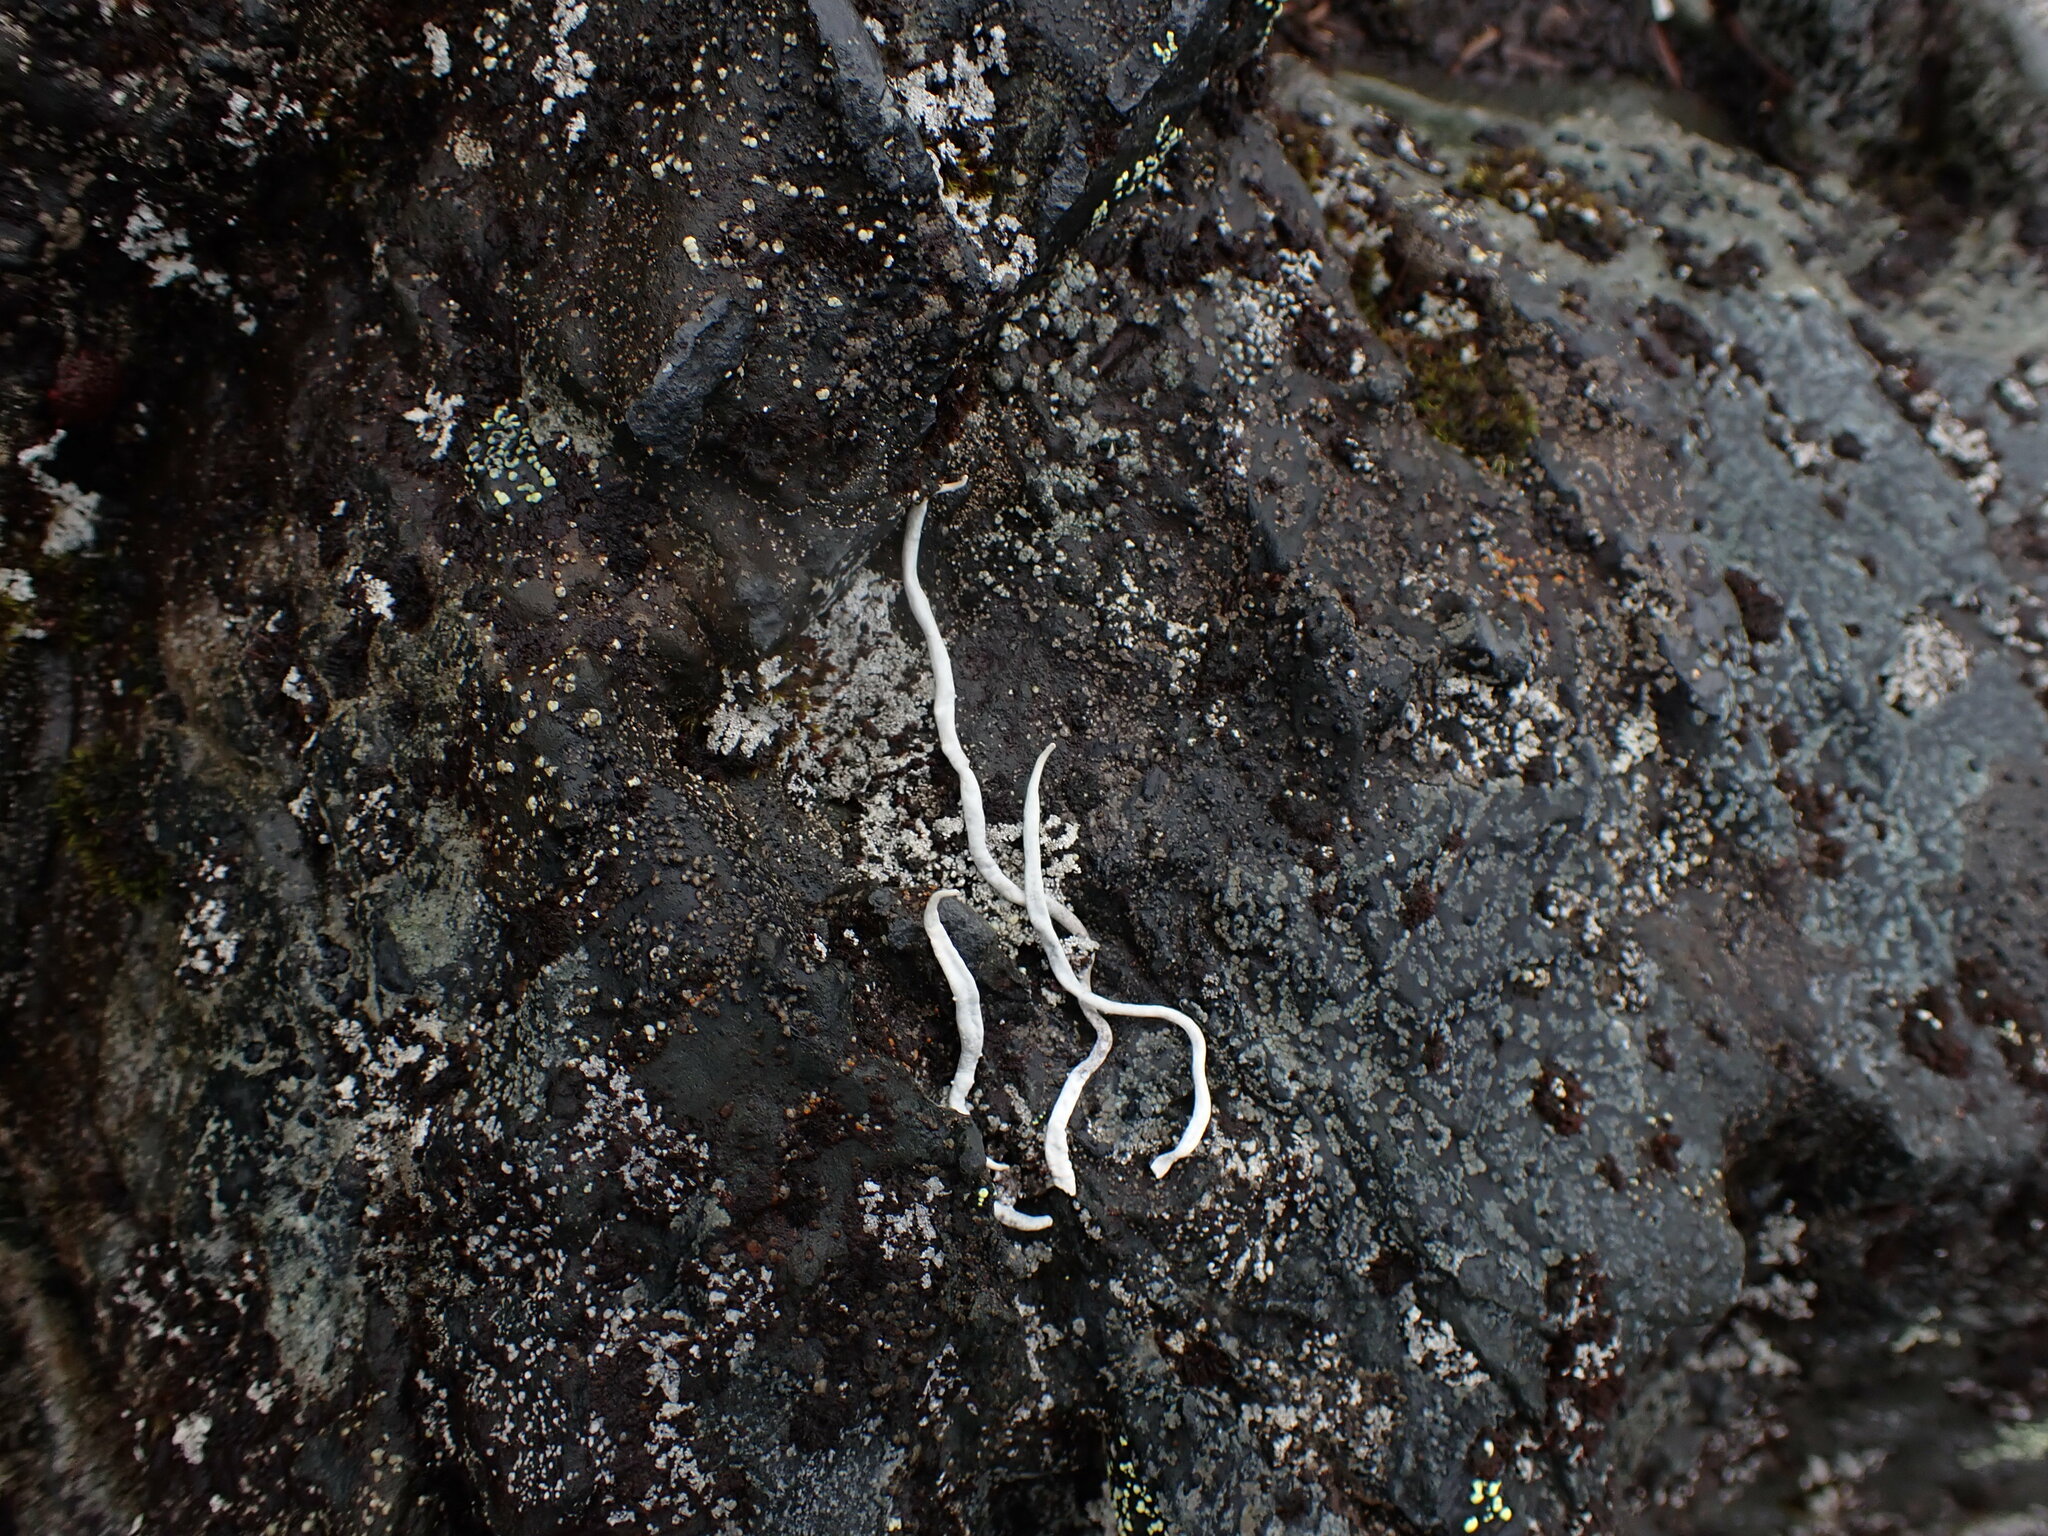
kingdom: Fungi
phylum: Ascomycota
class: Lecanoromycetes
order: Pertusariales
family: Icmadophilaceae
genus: Thamnolia
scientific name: Thamnolia vermicularis
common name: Whiteworm lichen
